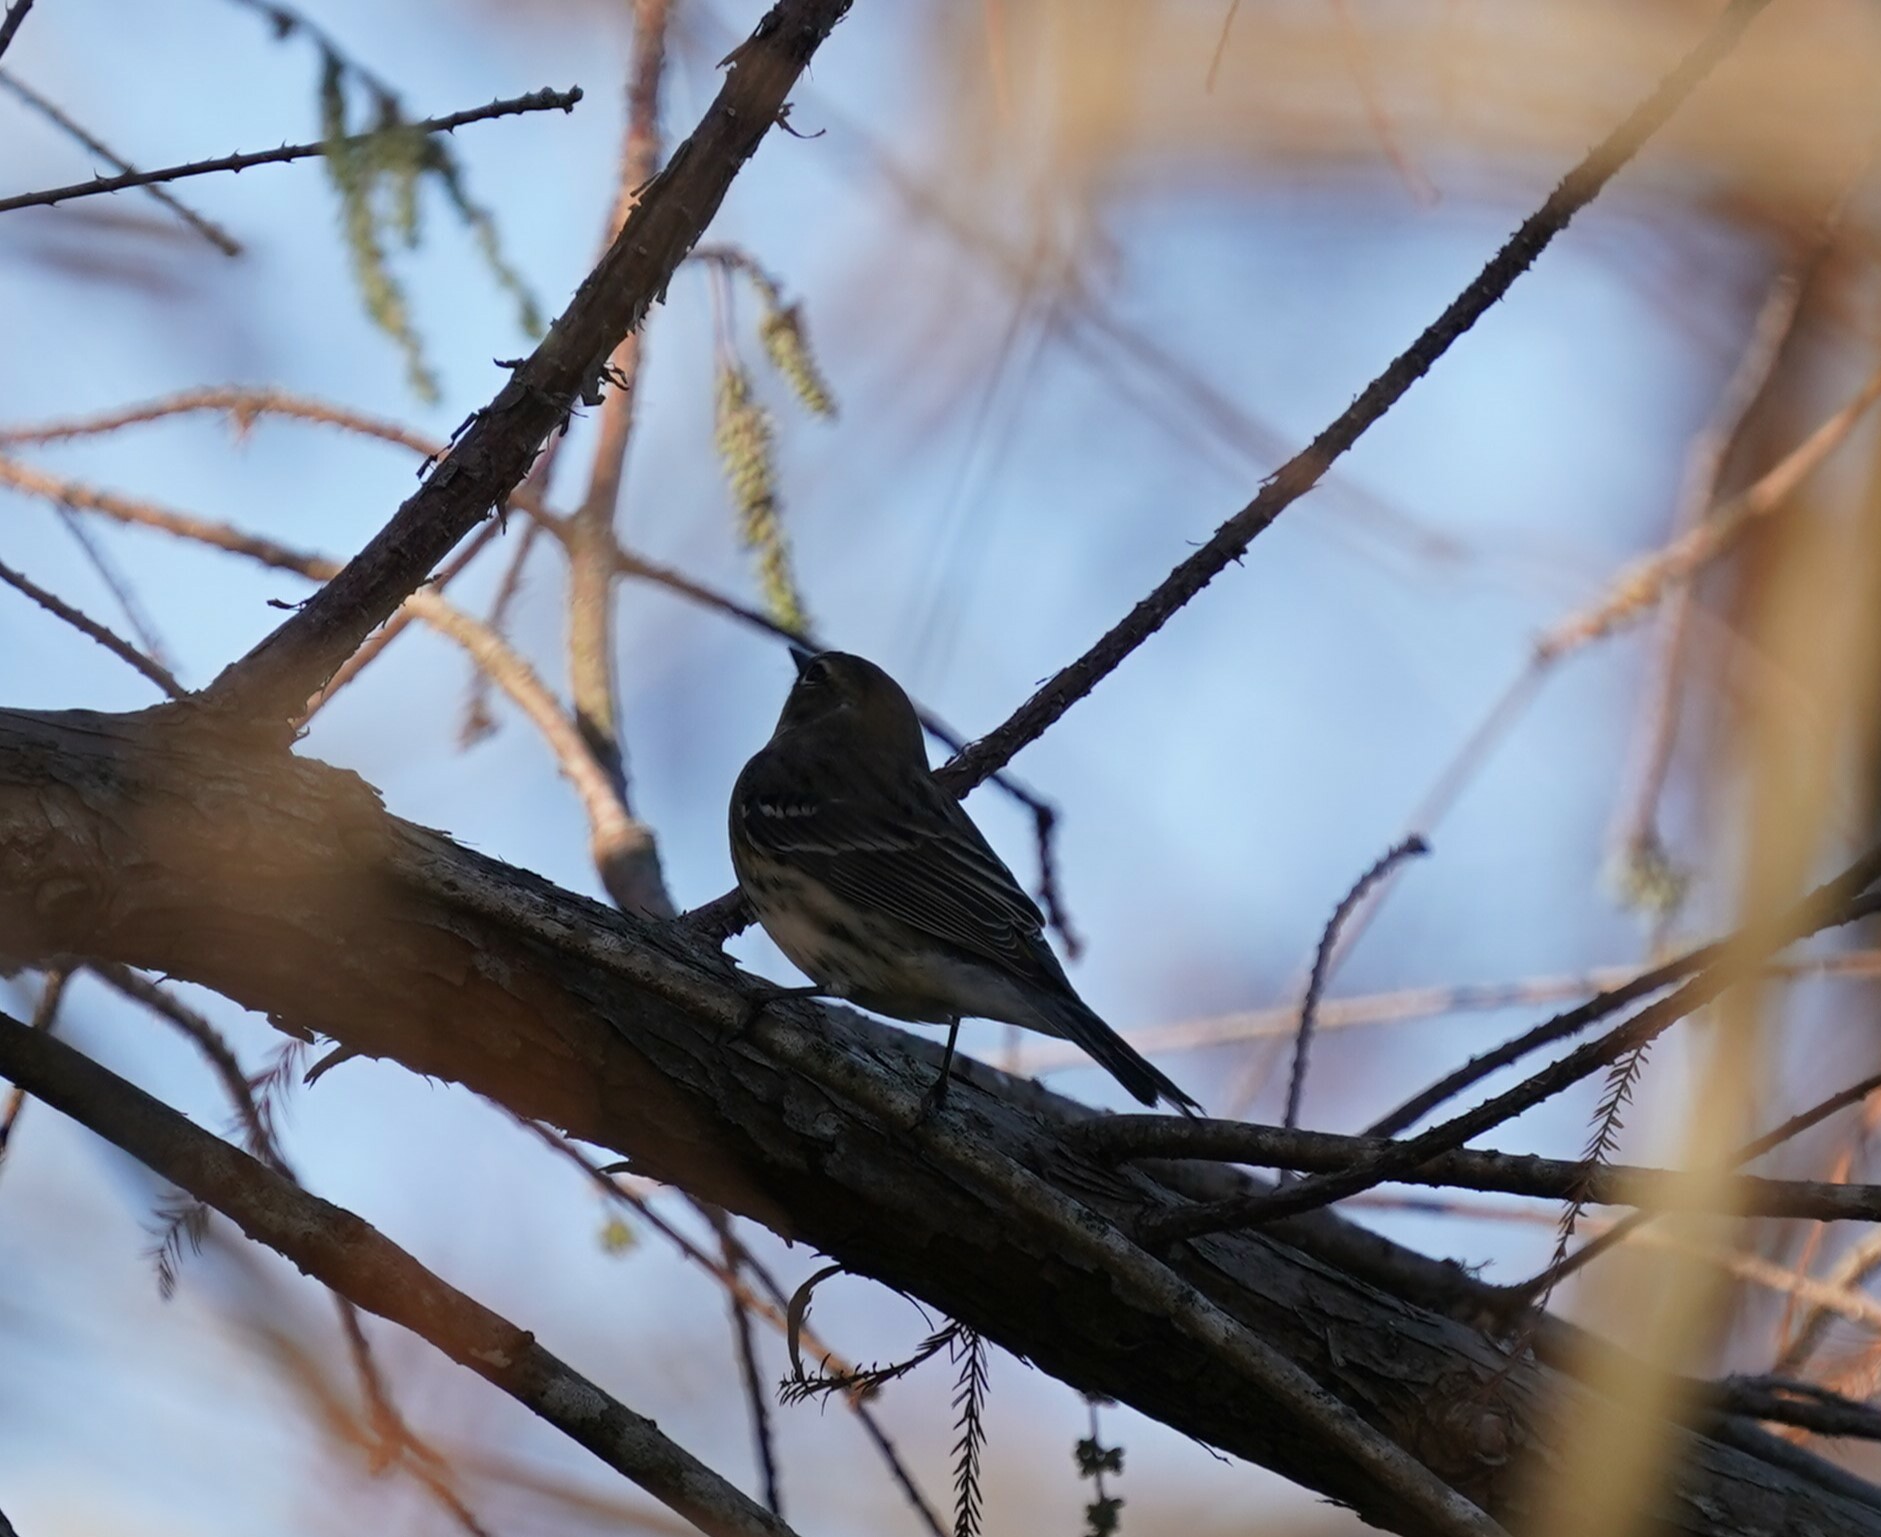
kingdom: Animalia
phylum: Chordata
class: Aves
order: Passeriformes
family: Parulidae
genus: Setophaga
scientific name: Setophaga coronata
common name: Myrtle warbler
